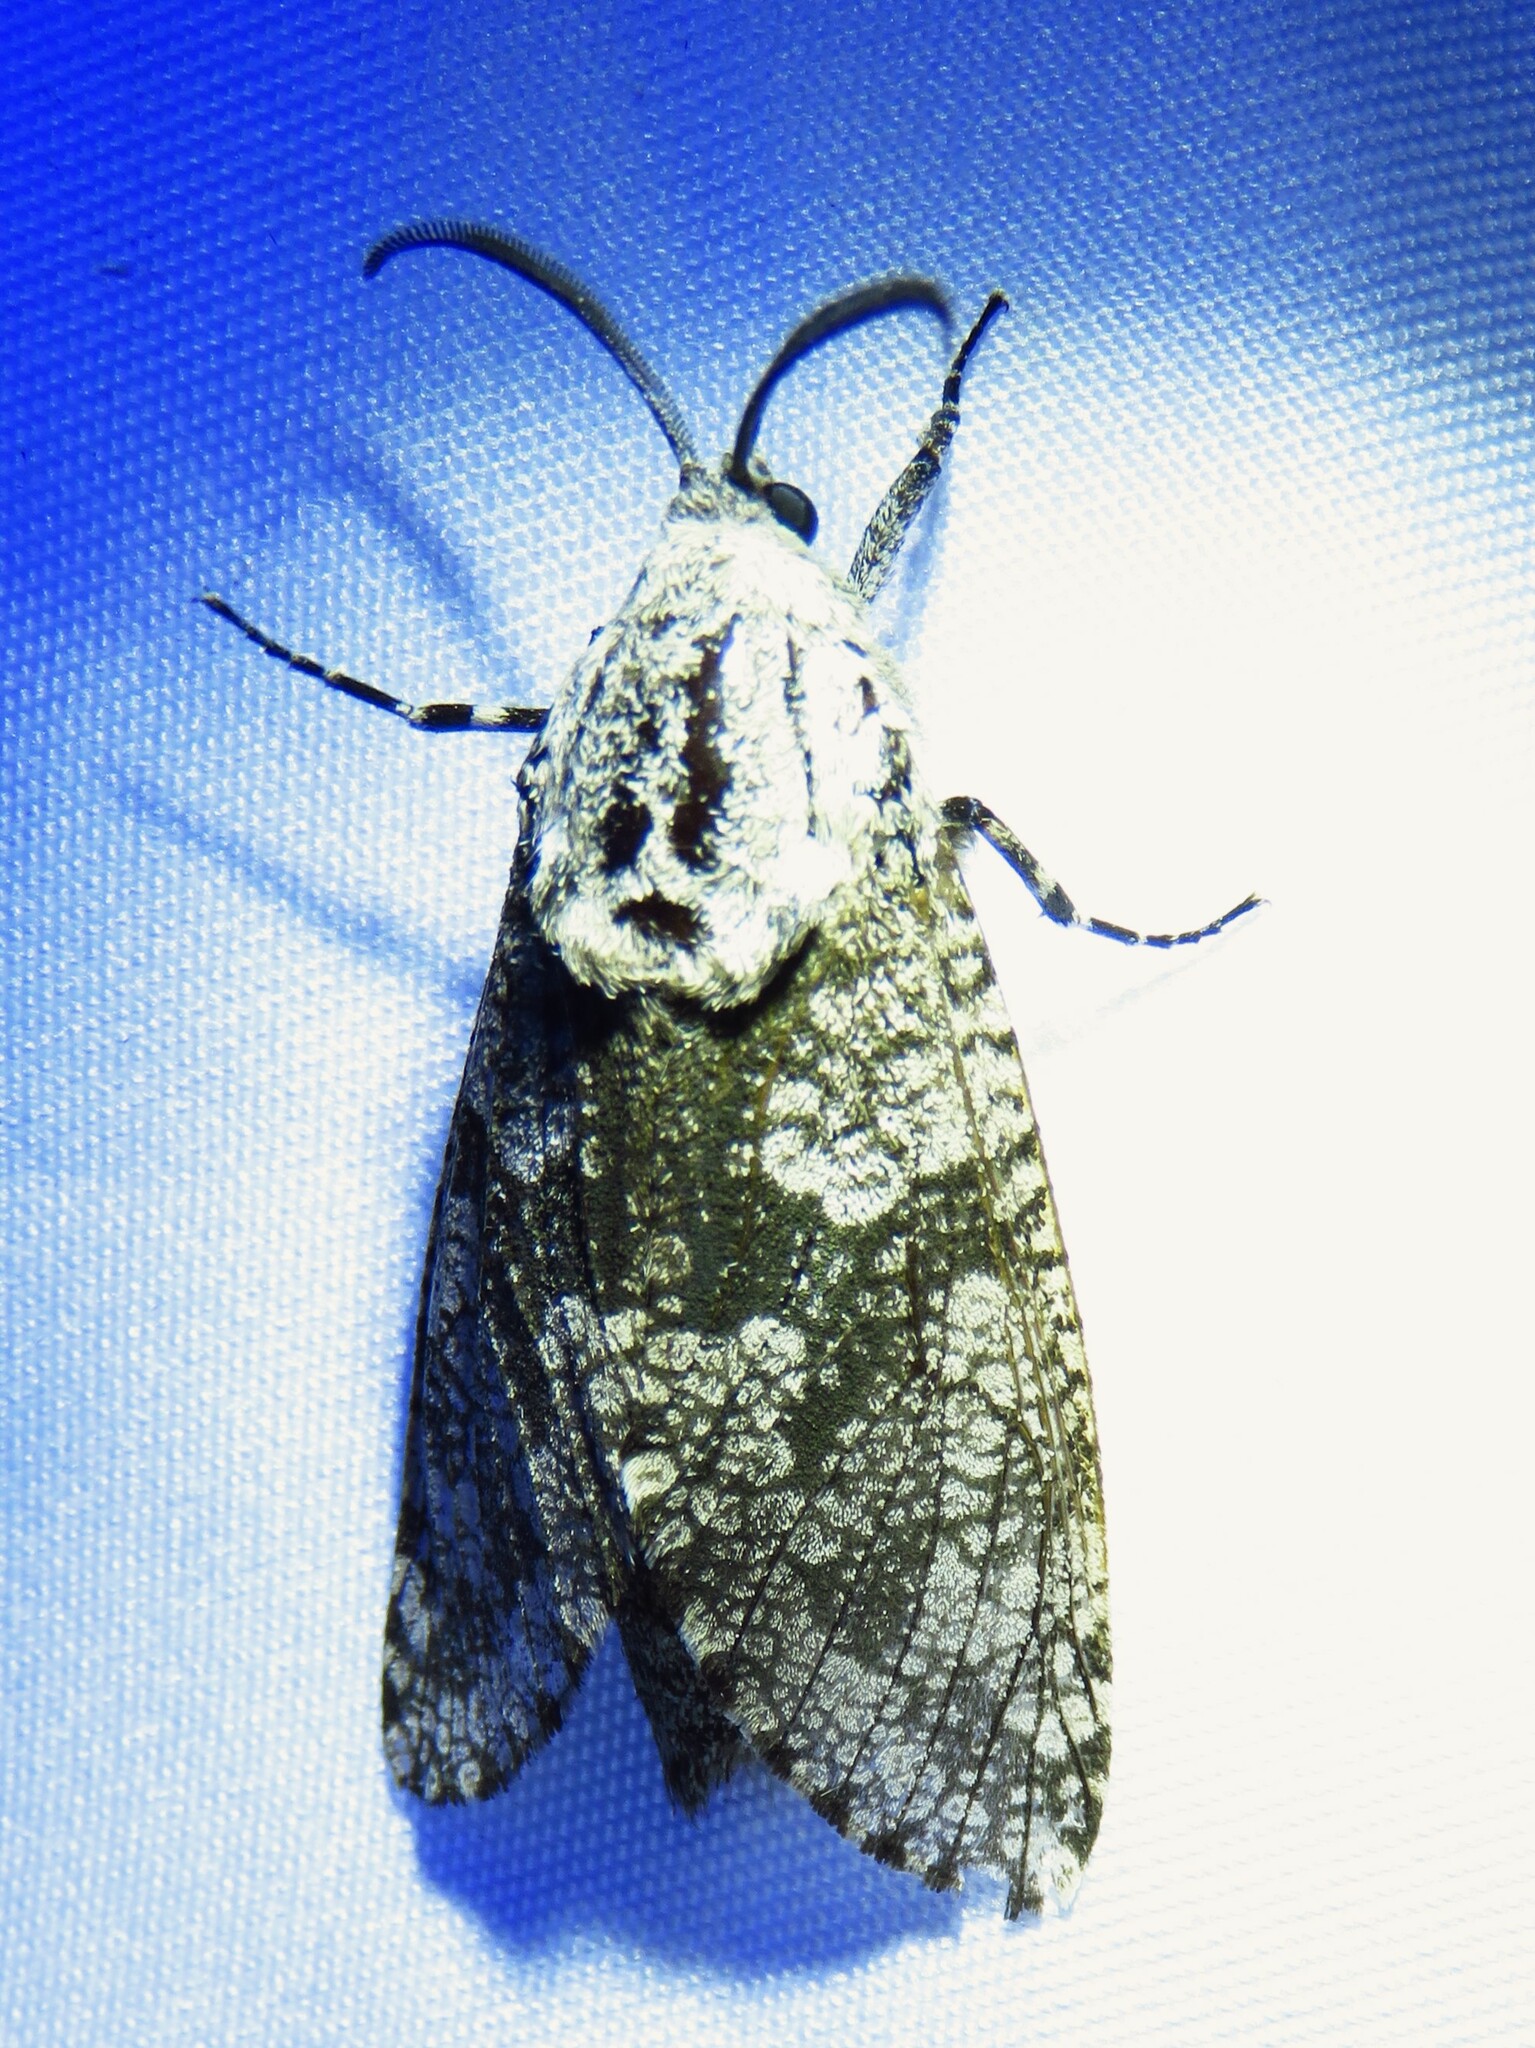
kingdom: Animalia
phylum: Arthropoda
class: Insecta
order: Lepidoptera
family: Cossidae
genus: Prionoxystus
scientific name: Prionoxystus robiniae
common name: Carpenterworm
